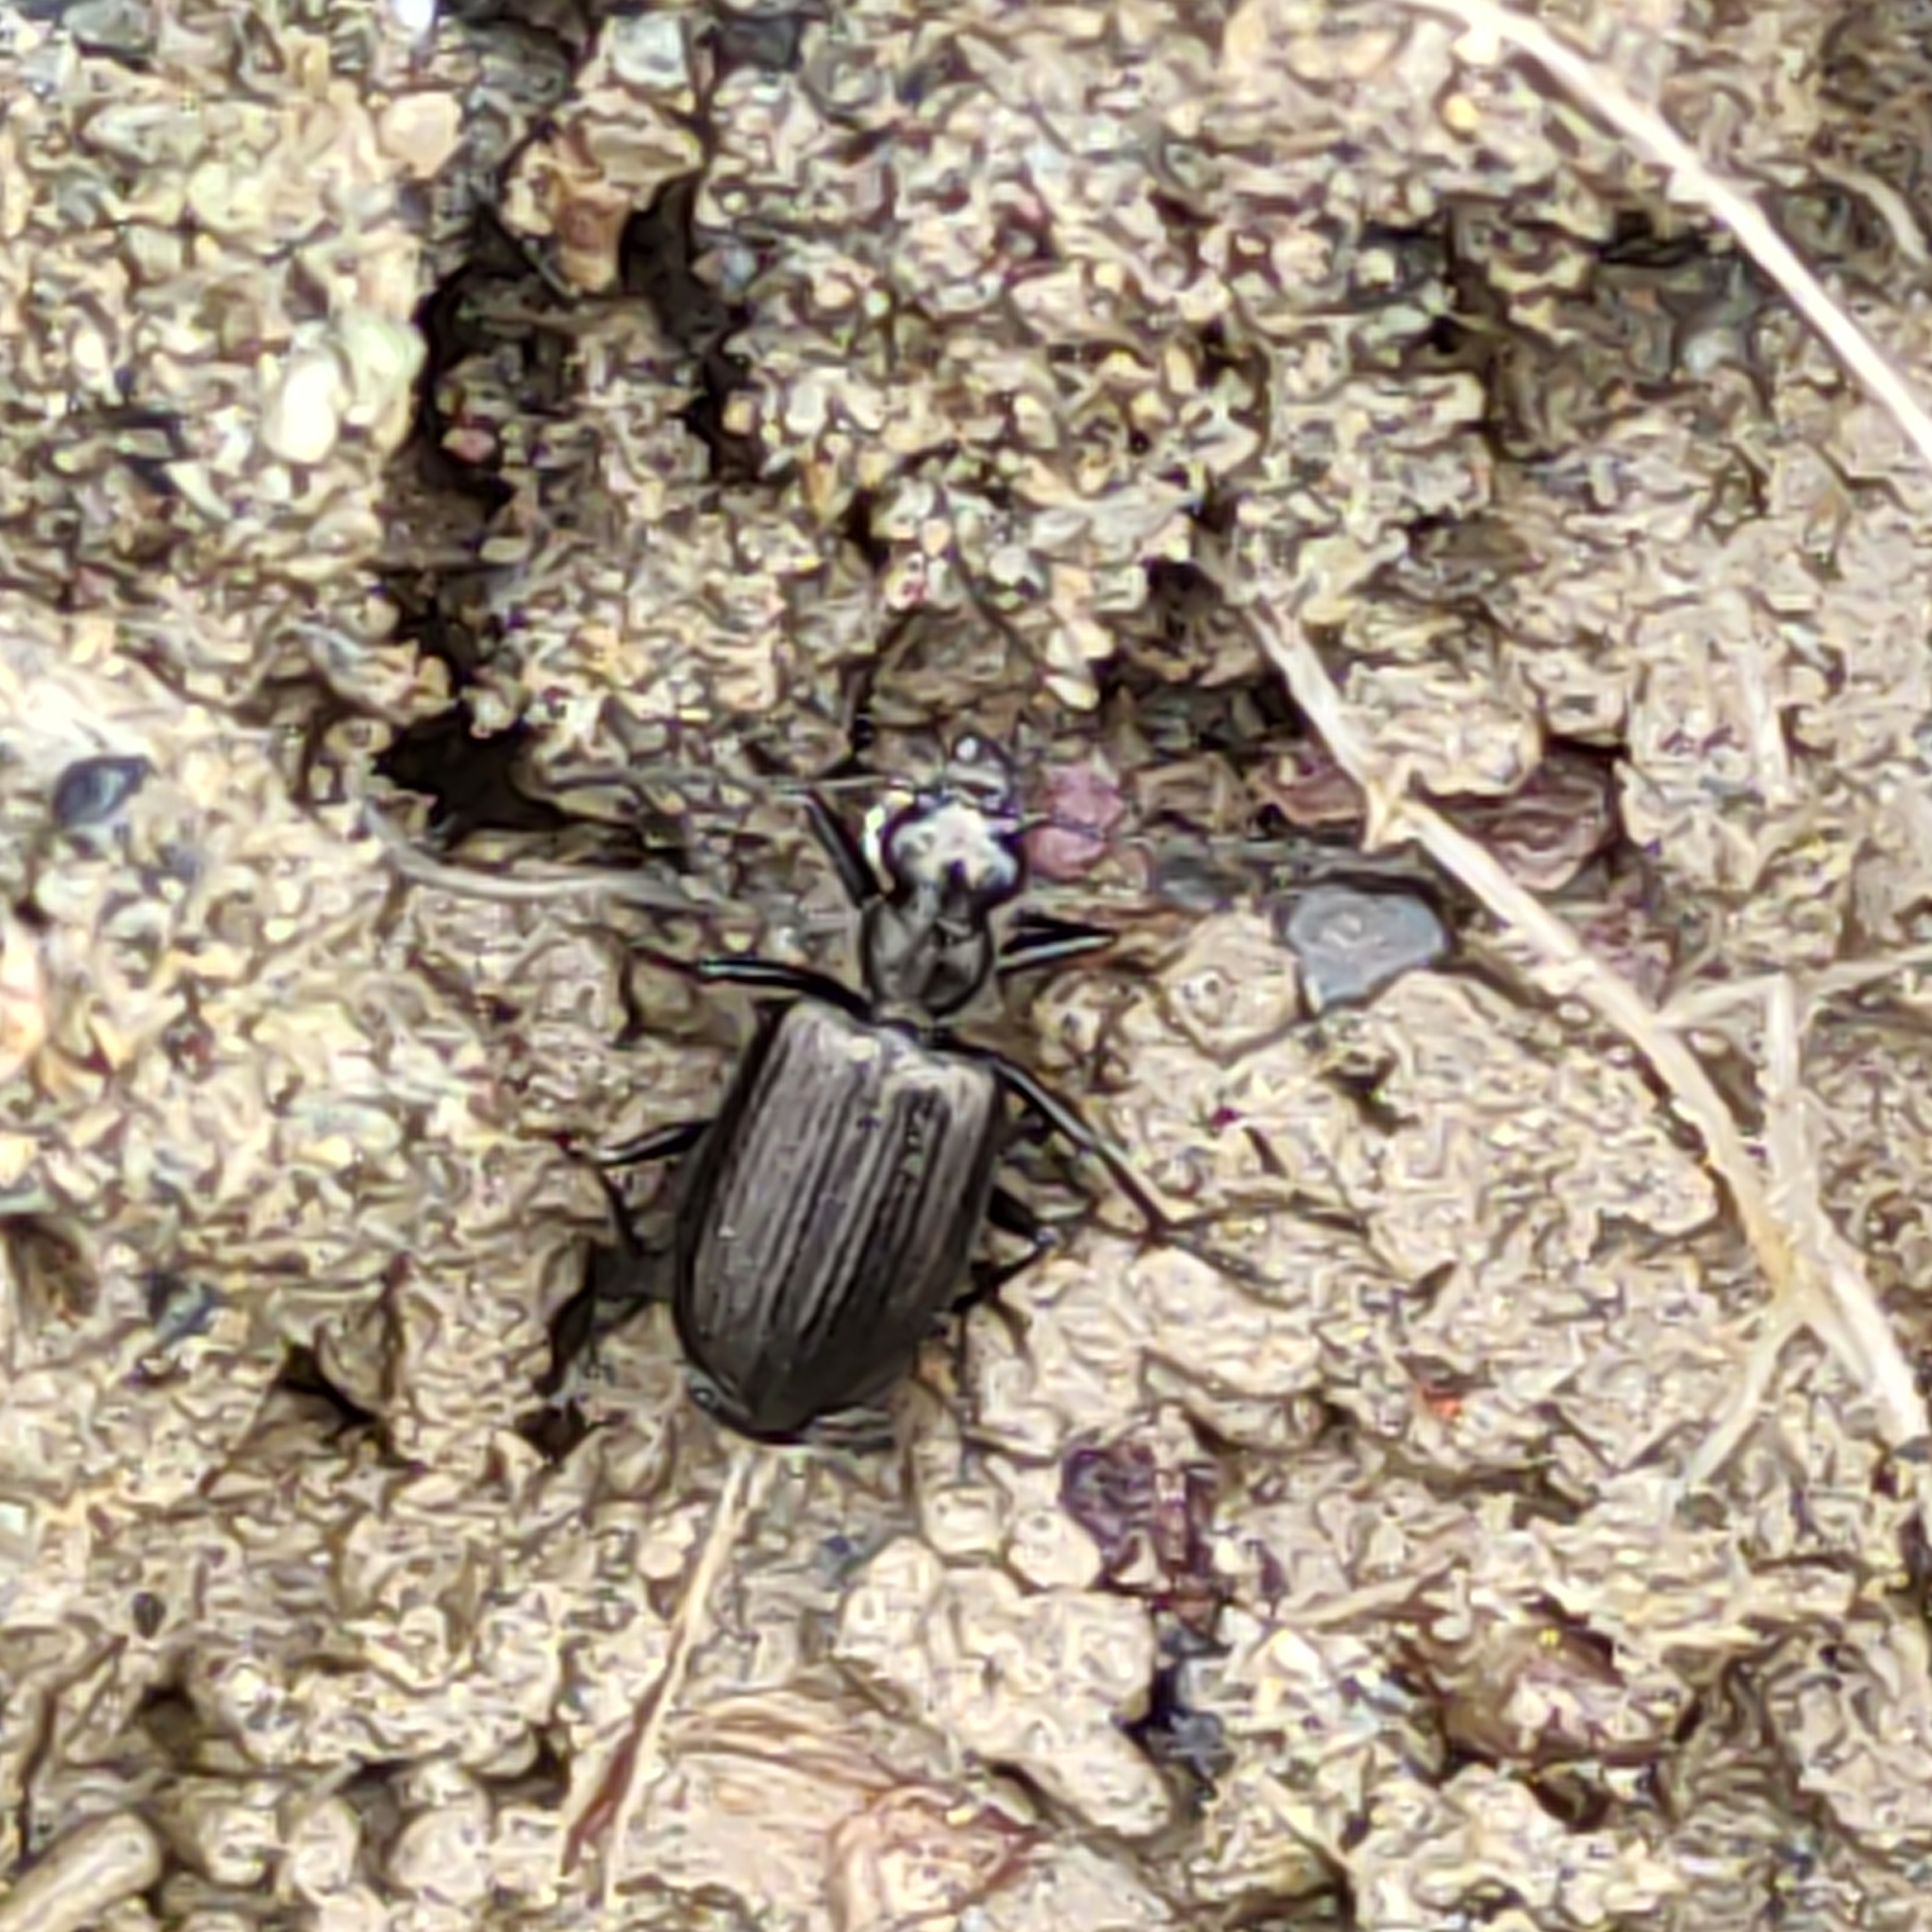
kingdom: Animalia
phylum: Arthropoda
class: Insecta
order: Coleoptera
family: Carabidae
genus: Actenonyx
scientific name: Actenonyx bembidioides
